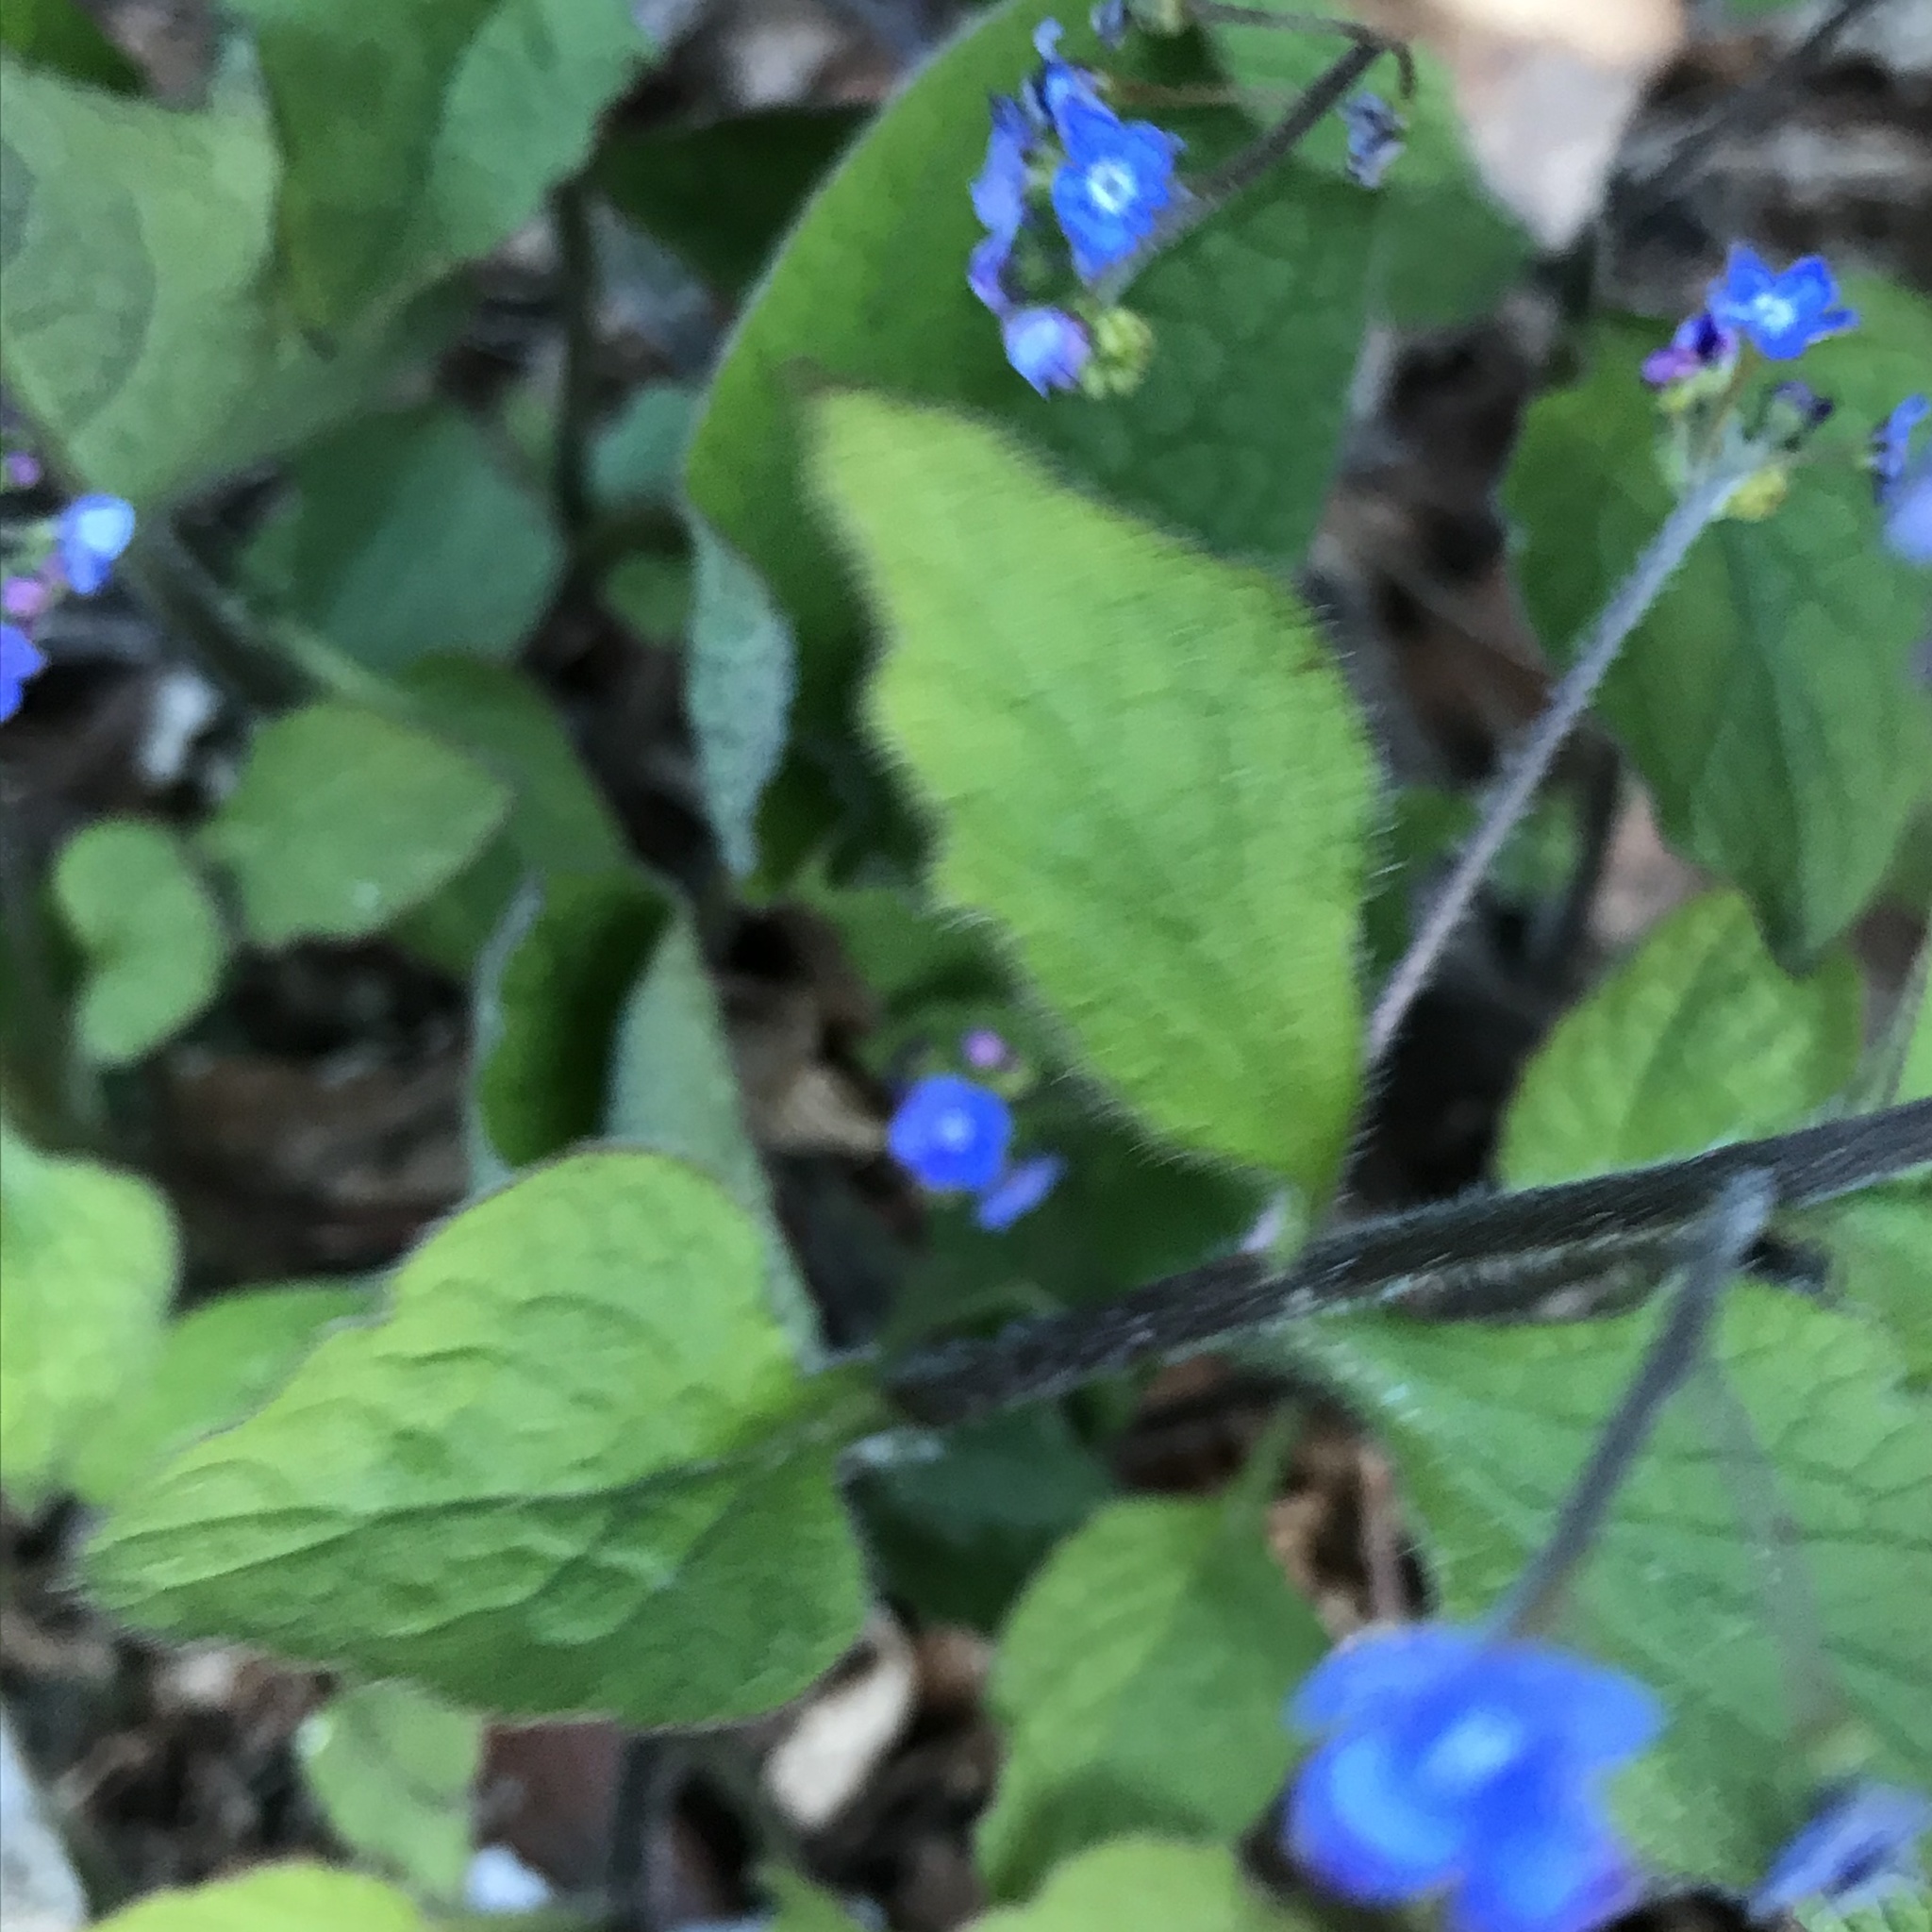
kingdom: Plantae
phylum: Tracheophyta
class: Magnoliopsida
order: Boraginales
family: Boraginaceae
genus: Brunnera
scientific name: Brunnera macrophylla
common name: Great forget-me-not
